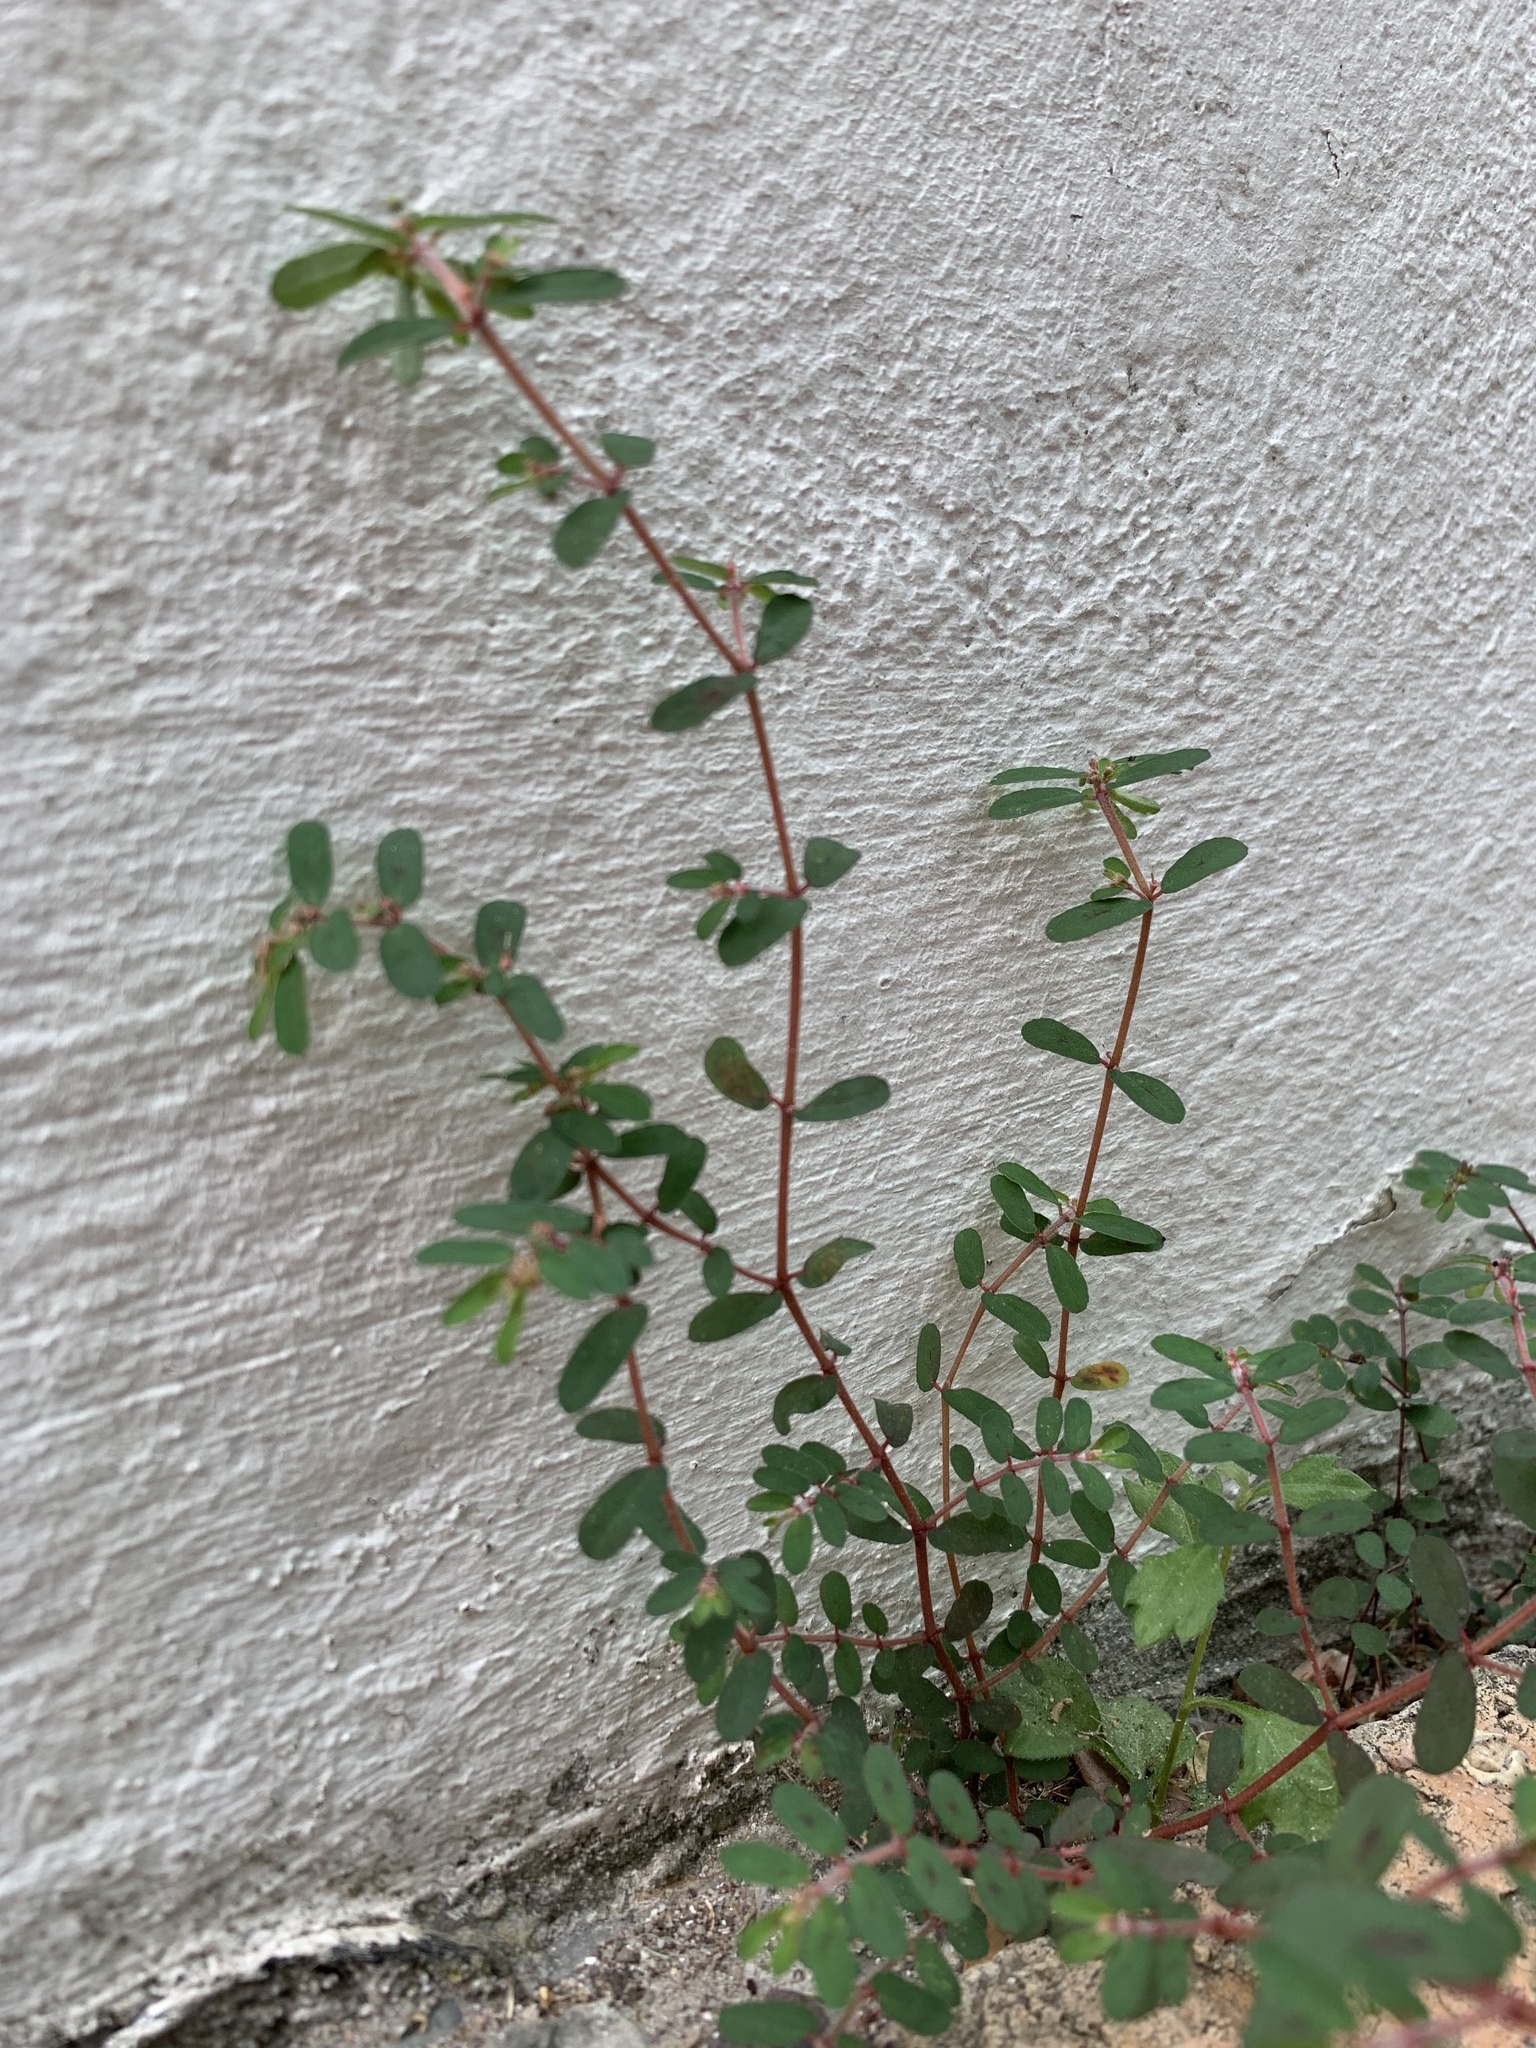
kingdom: Plantae
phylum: Tracheophyta
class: Magnoliopsida
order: Malpighiales
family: Euphorbiaceae
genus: Euphorbia
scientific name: Euphorbia maculata
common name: Spotted spurge
